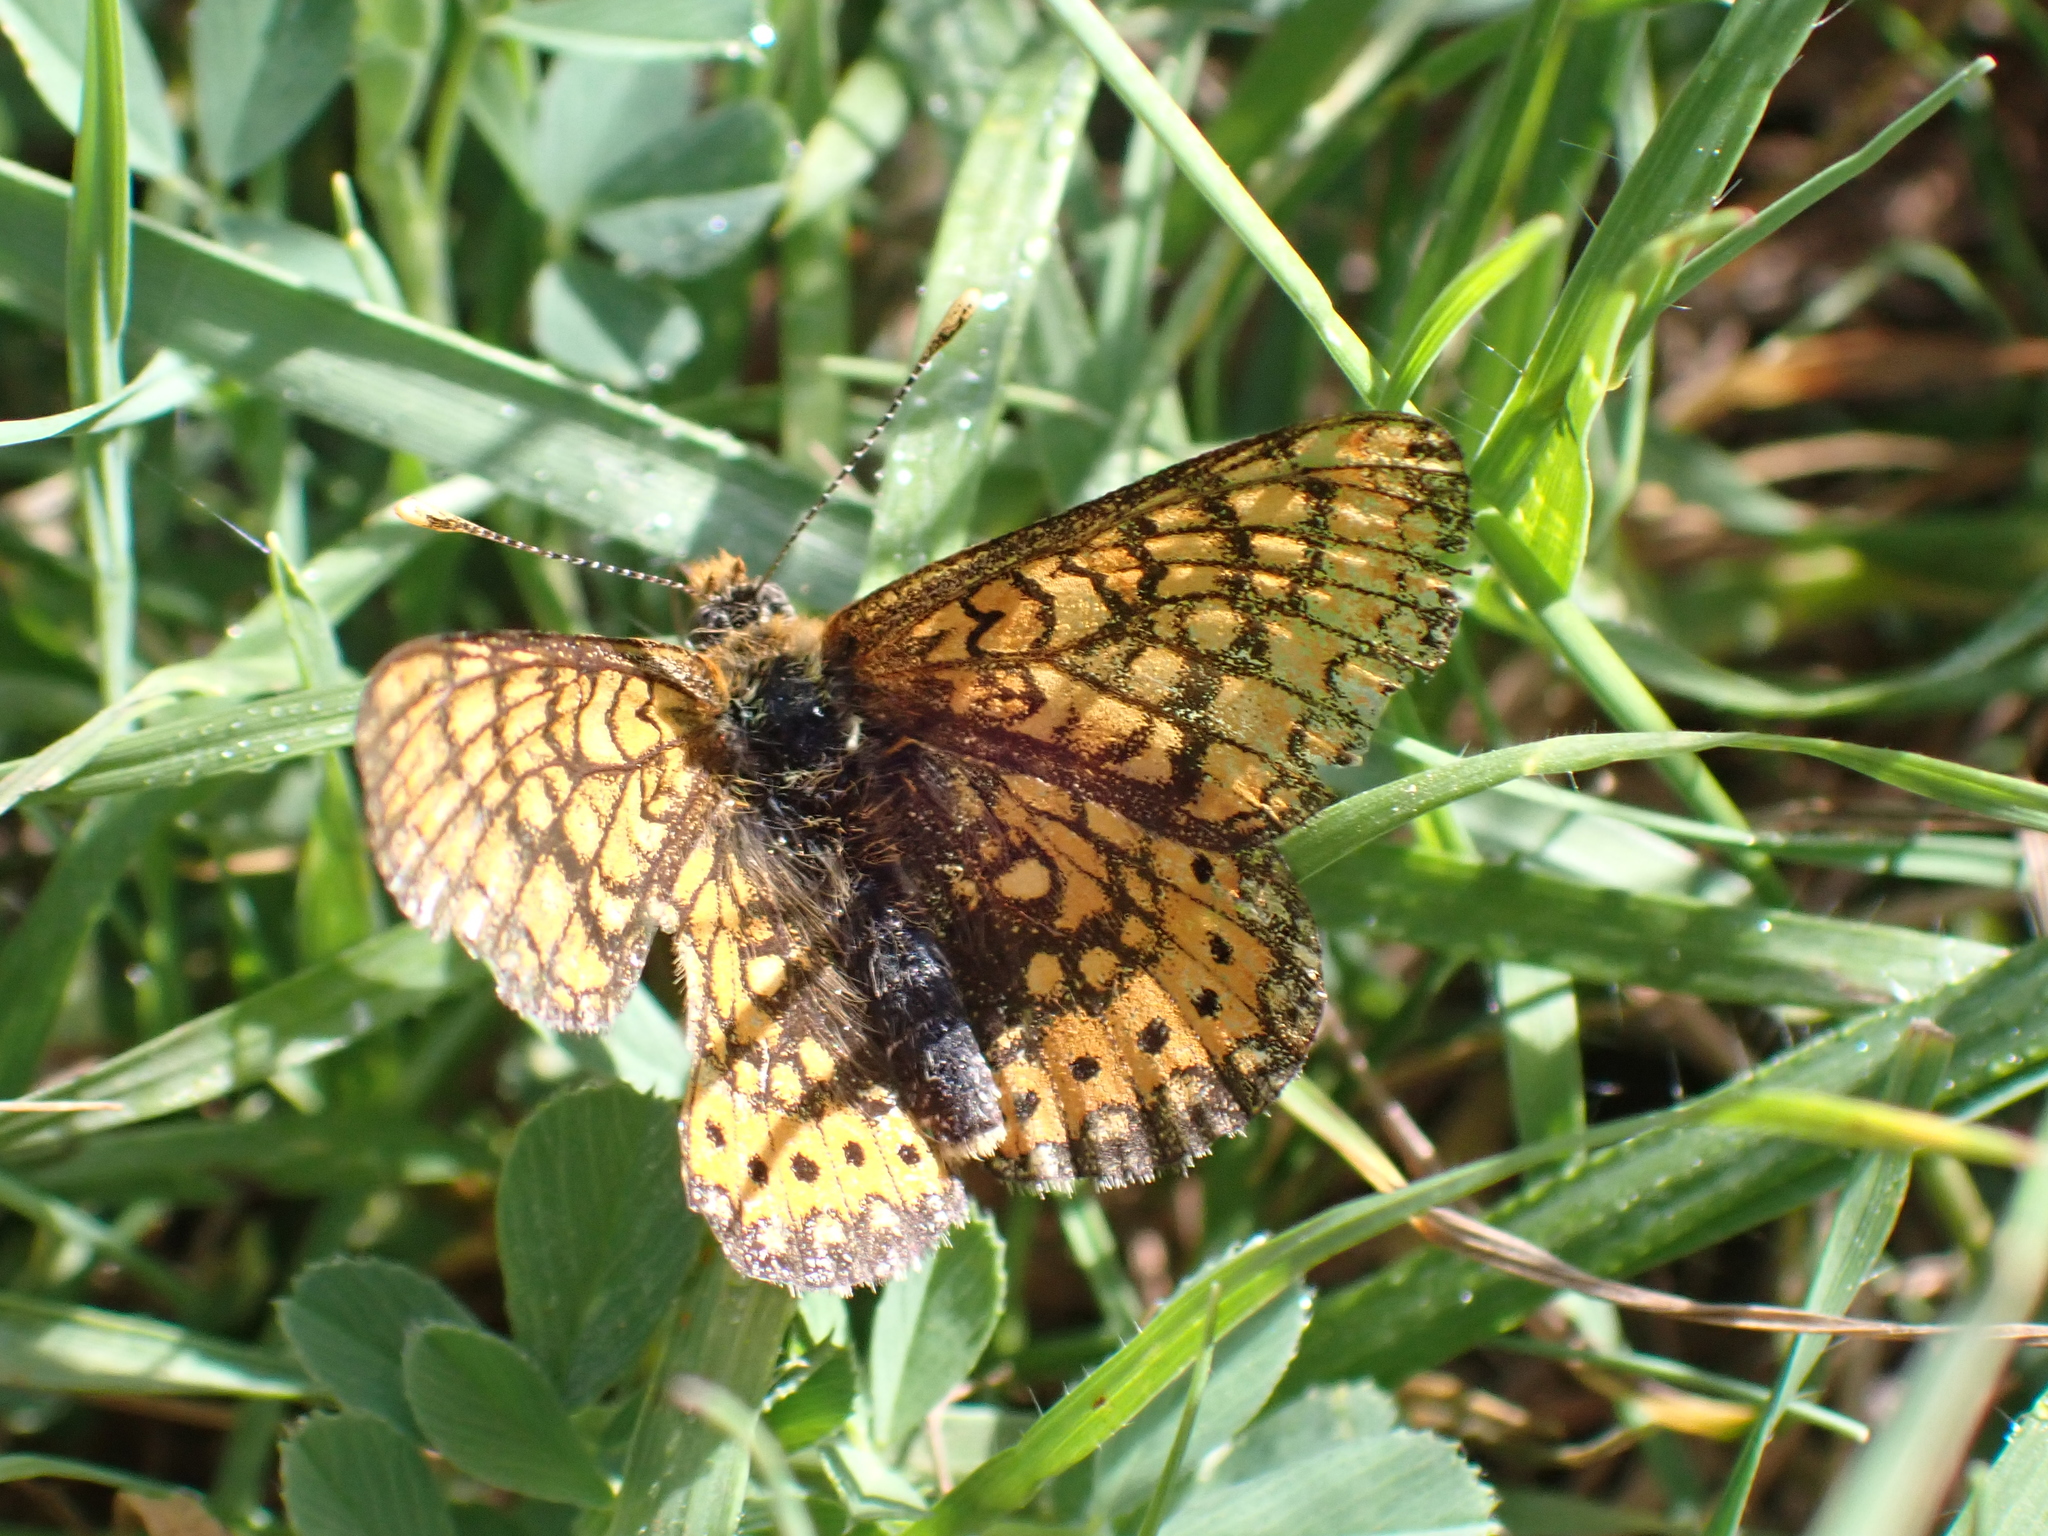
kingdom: Animalia
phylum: Arthropoda
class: Insecta
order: Lepidoptera
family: Nymphalidae
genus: Euphydryas
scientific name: Euphydryas aurinia
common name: Marsh fritillary
